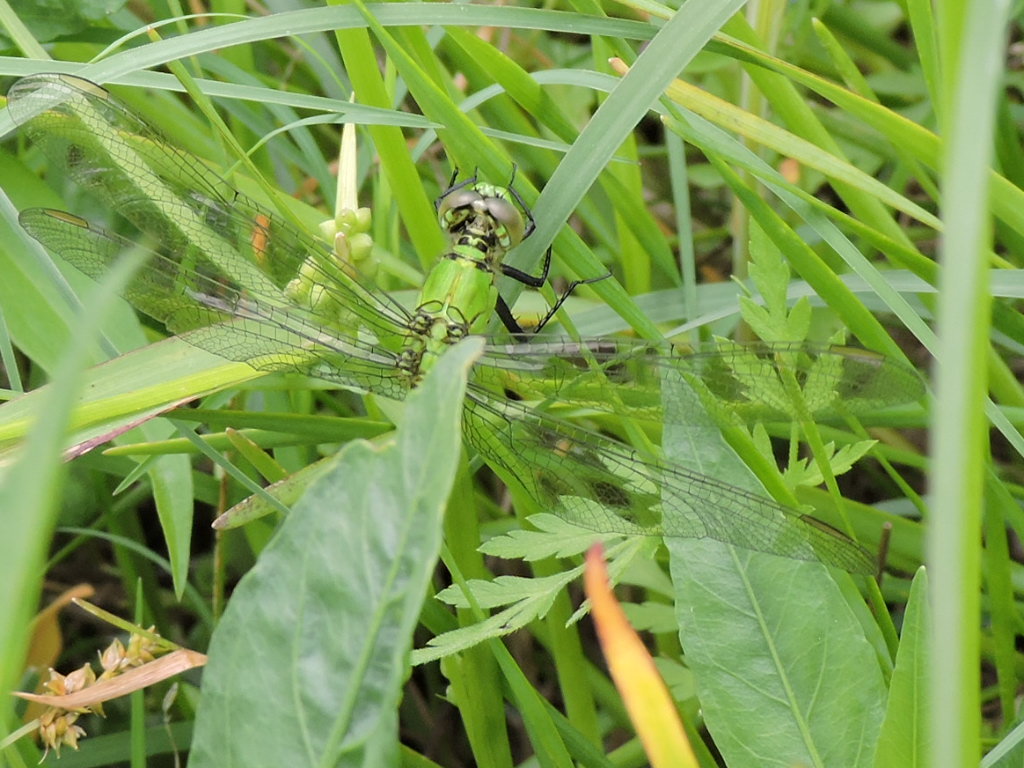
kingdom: Animalia
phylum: Arthropoda
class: Insecta
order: Odonata
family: Libellulidae
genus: Erythemis
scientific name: Erythemis simplicicollis
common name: Eastern pondhawk
